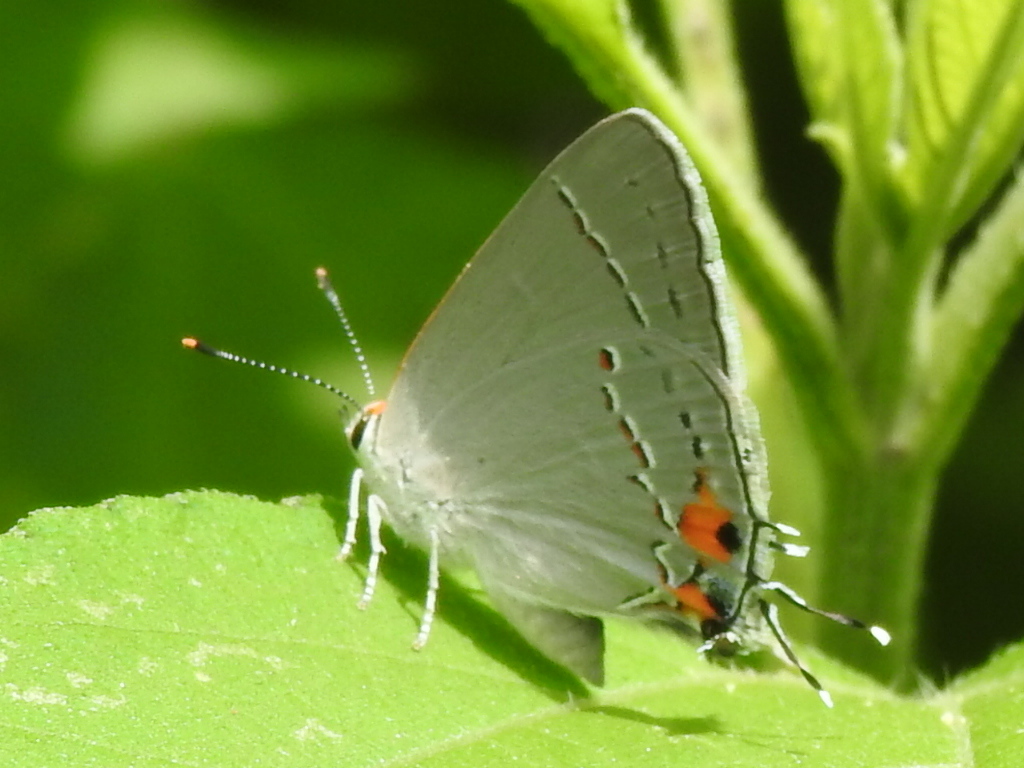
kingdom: Animalia
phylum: Arthropoda
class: Insecta
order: Lepidoptera
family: Lycaenidae
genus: Strymon
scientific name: Strymon melinus
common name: Gray hairstreak
